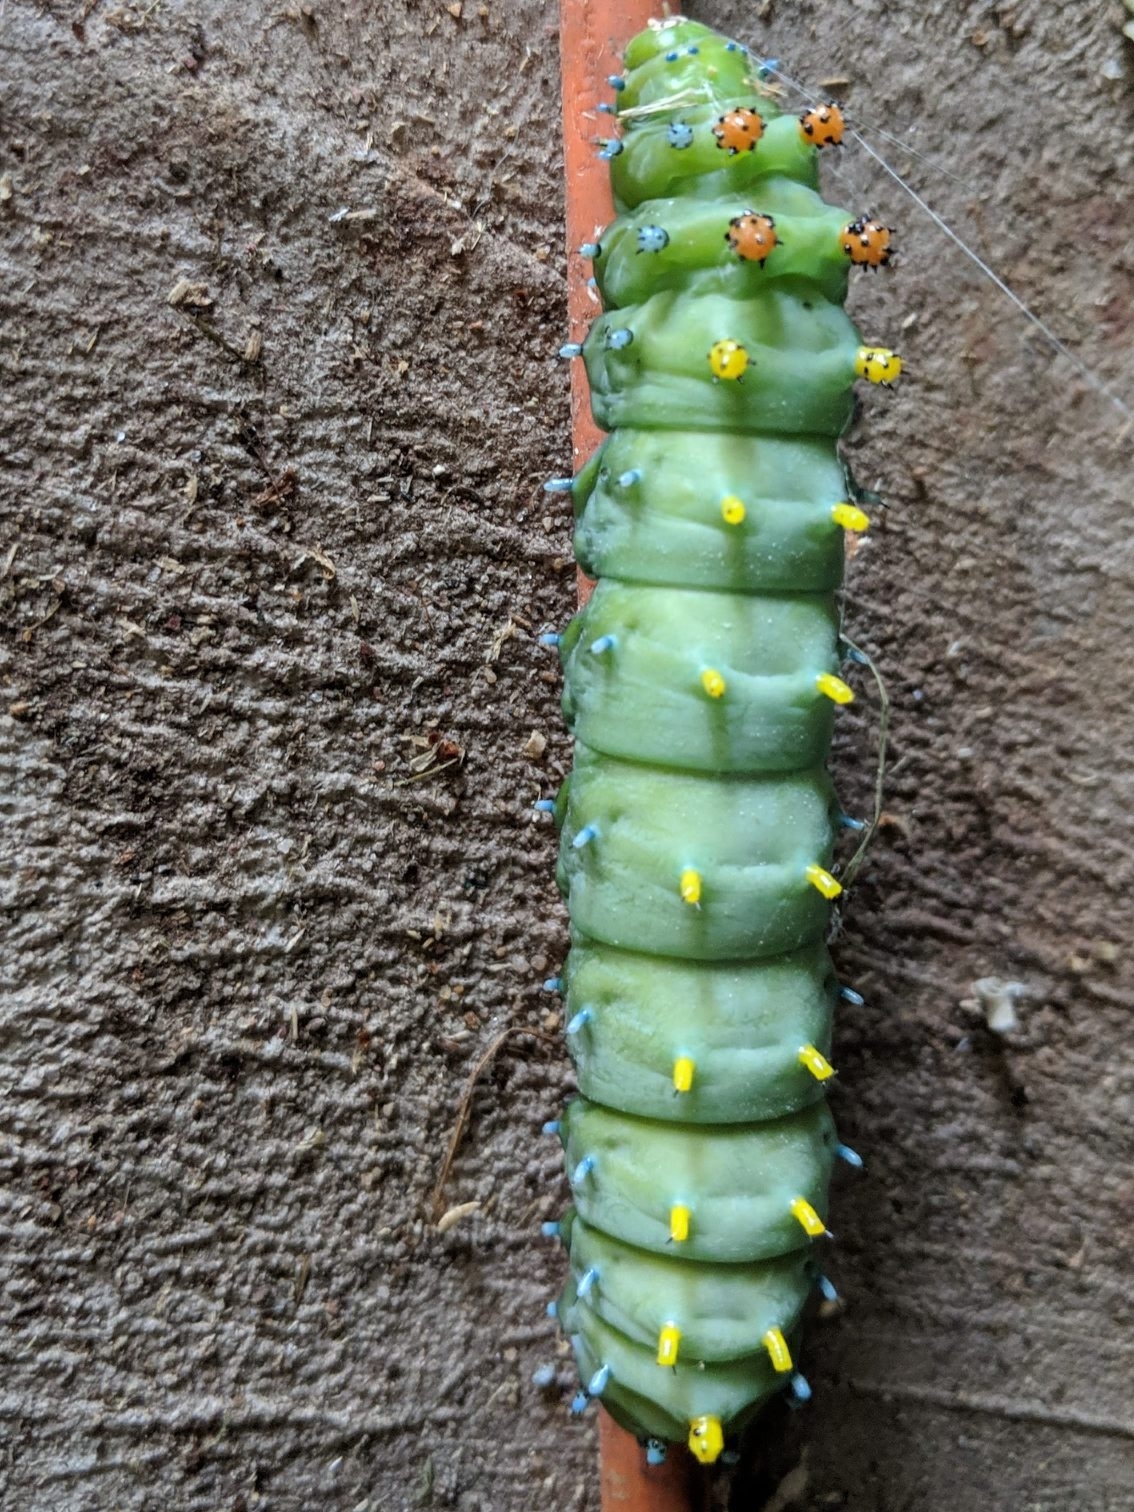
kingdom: Animalia
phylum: Arthropoda
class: Insecta
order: Lepidoptera
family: Saturniidae
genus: Hyalophora
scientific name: Hyalophora cecropia
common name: Cecropia silkmoth
